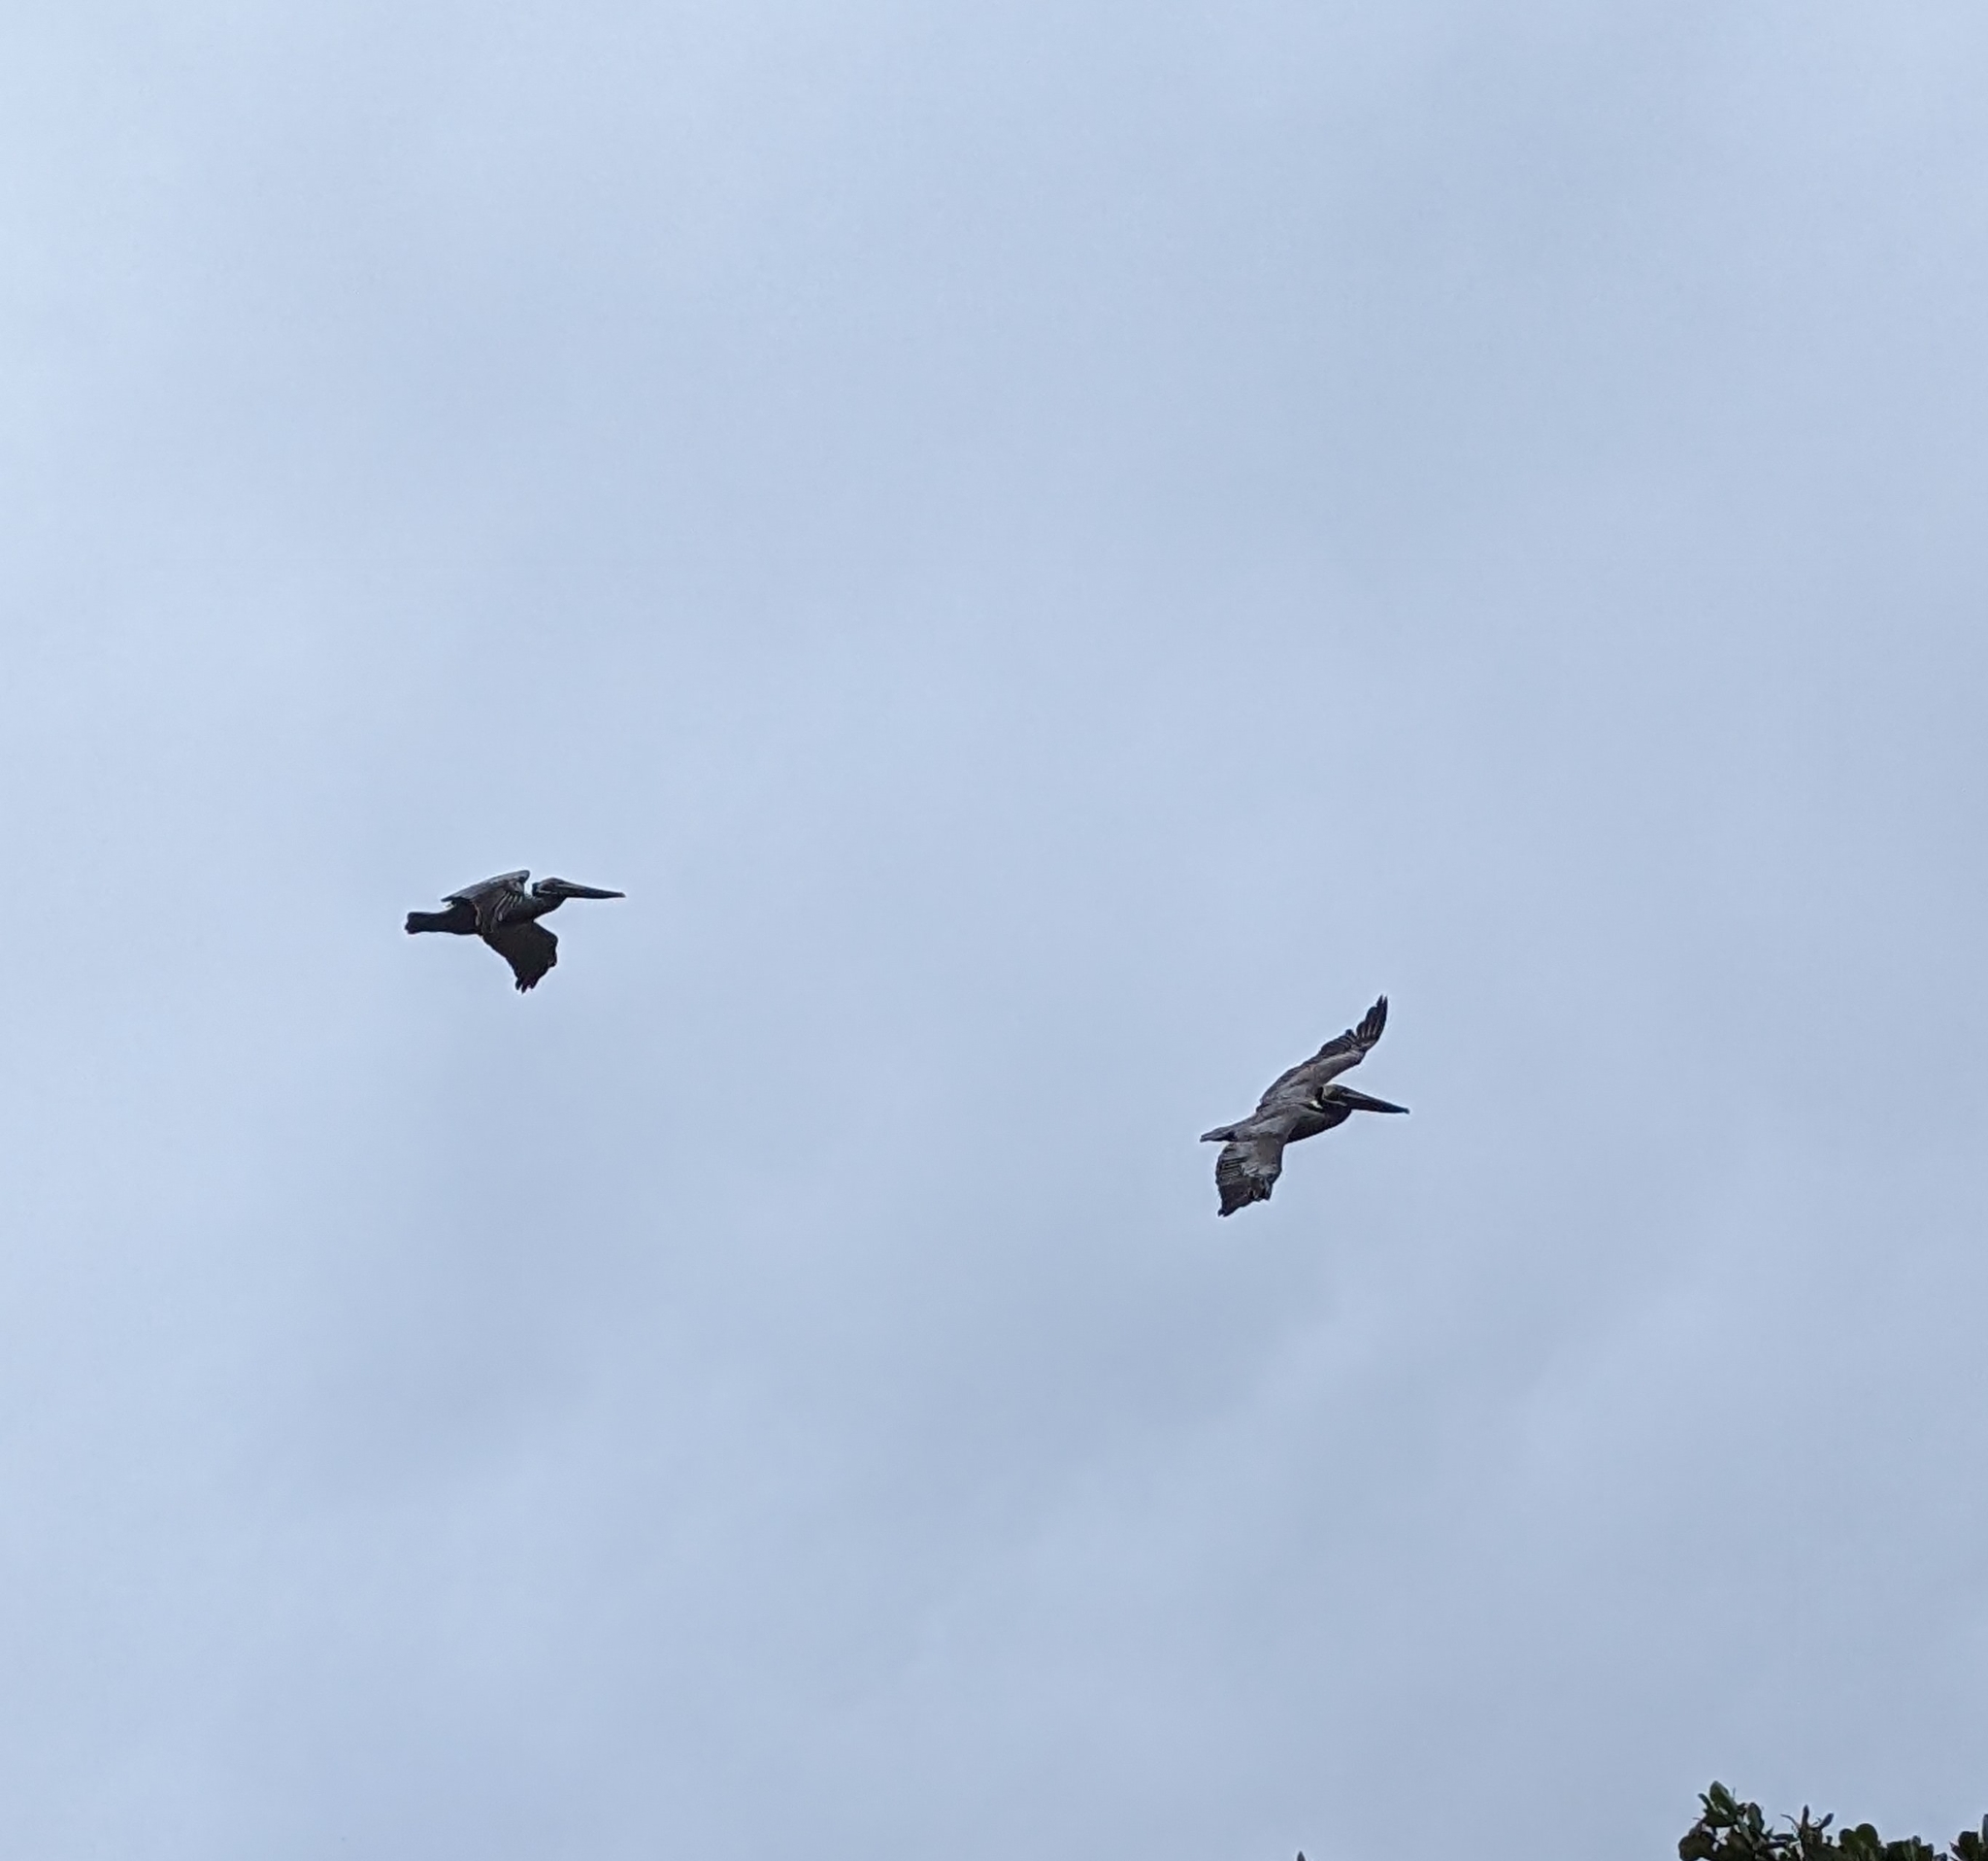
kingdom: Animalia
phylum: Chordata
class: Aves
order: Pelecaniformes
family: Pelecanidae
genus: Pelecanus
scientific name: Pelecanus occidentalis
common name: Brown pelican
